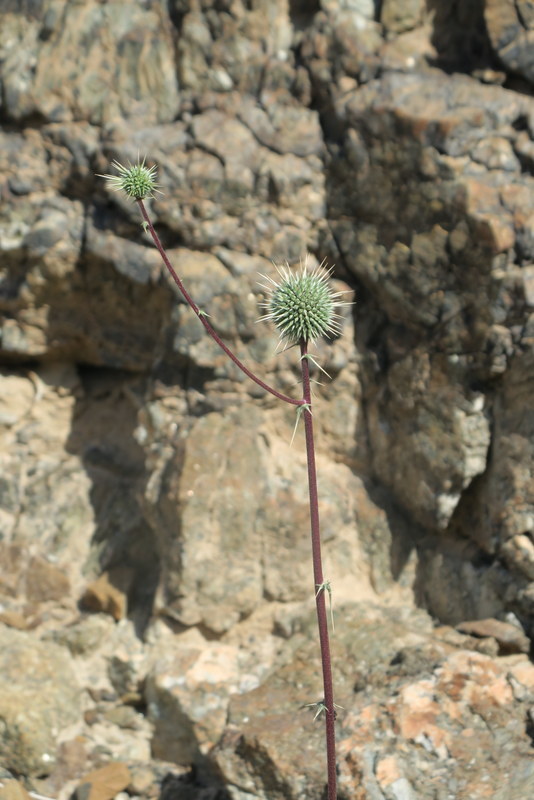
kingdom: Plantae
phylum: Tracheophyta
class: Magnoliopsida
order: Asterales
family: Asteraceae
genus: Echinops
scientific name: Echinops erinaceus
